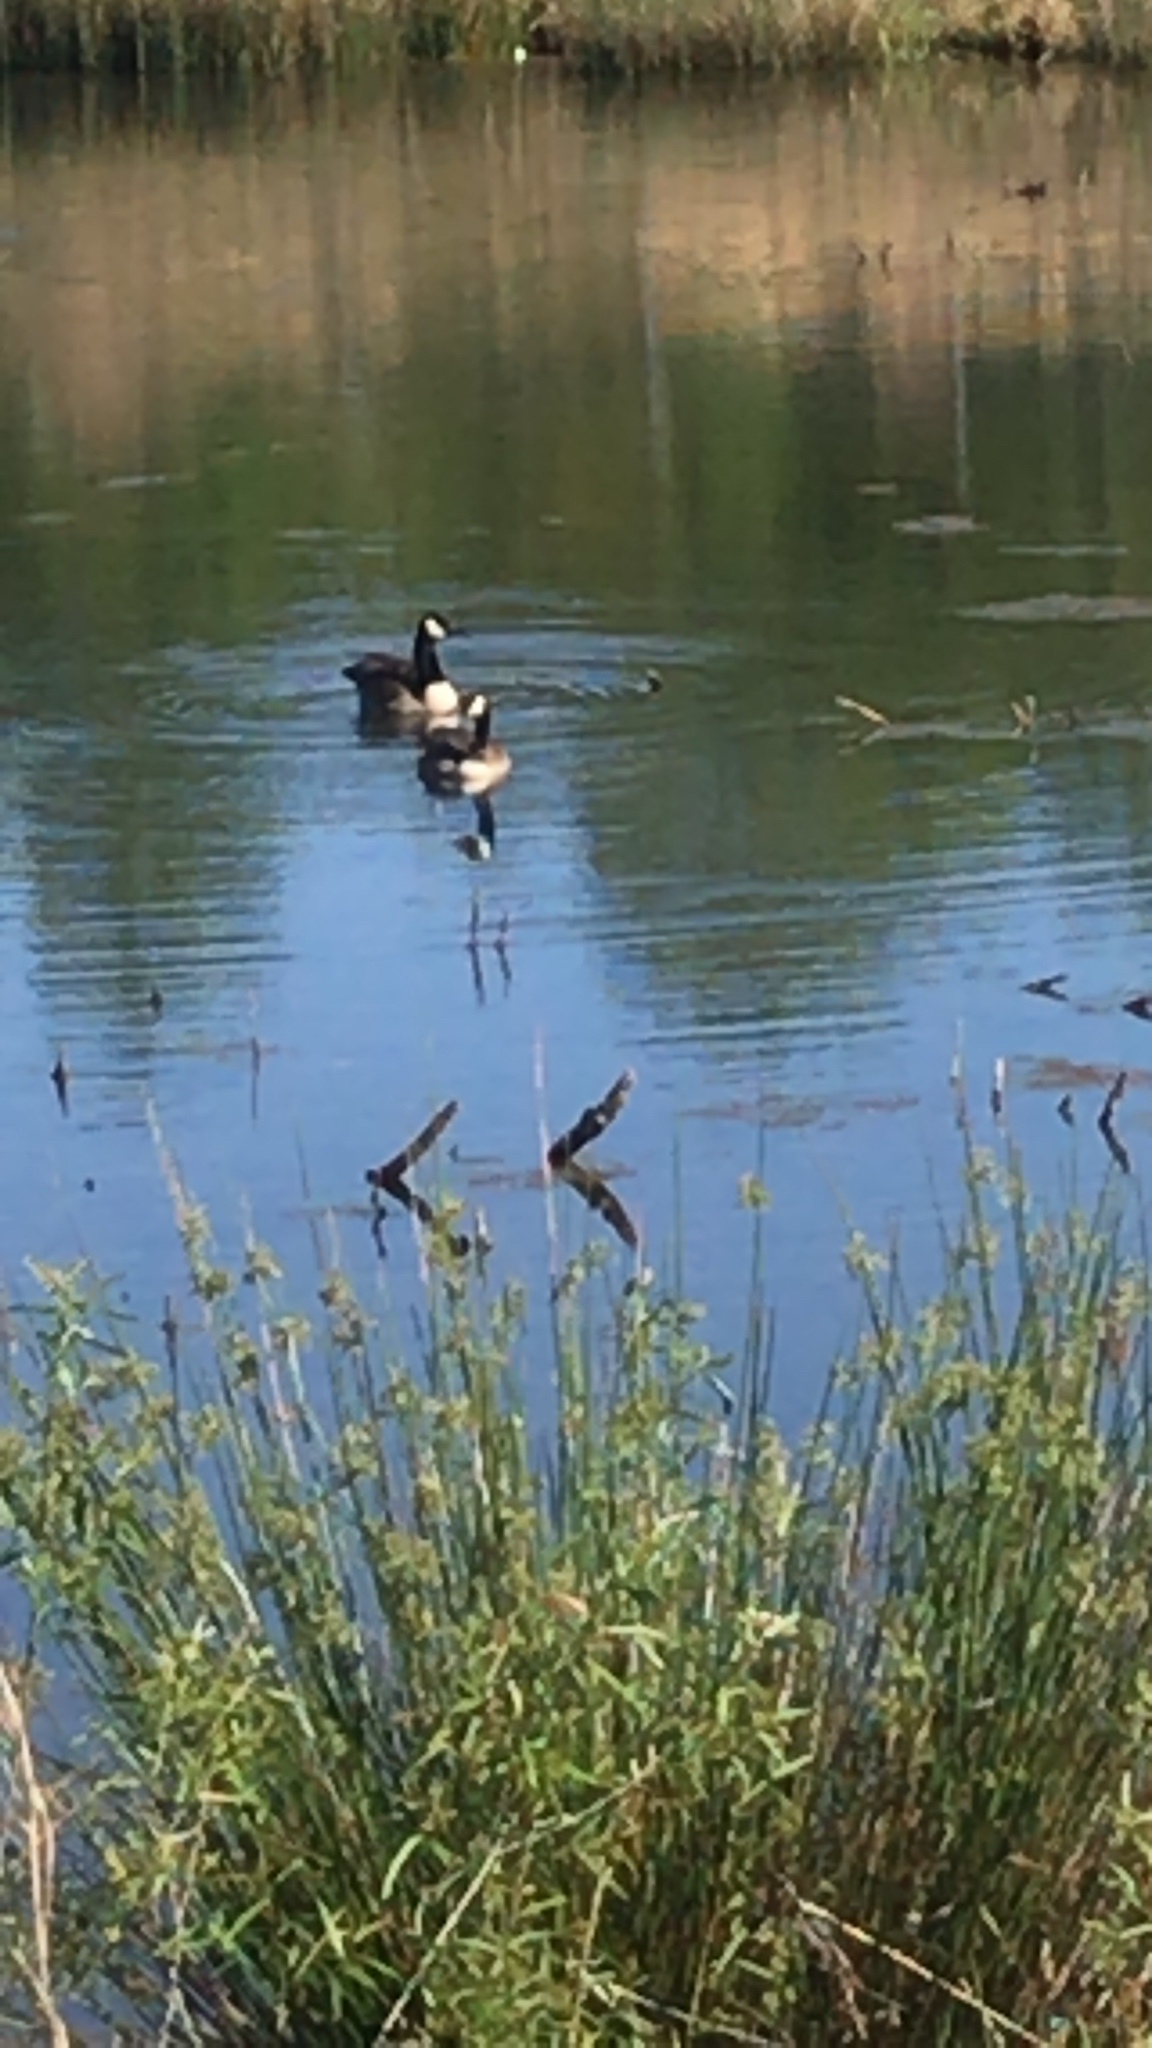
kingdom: Animalia
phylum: Chordata
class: Aves
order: Anseriformes
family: Anatidae
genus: Branta
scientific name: Branta canadensis
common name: Canada goose
